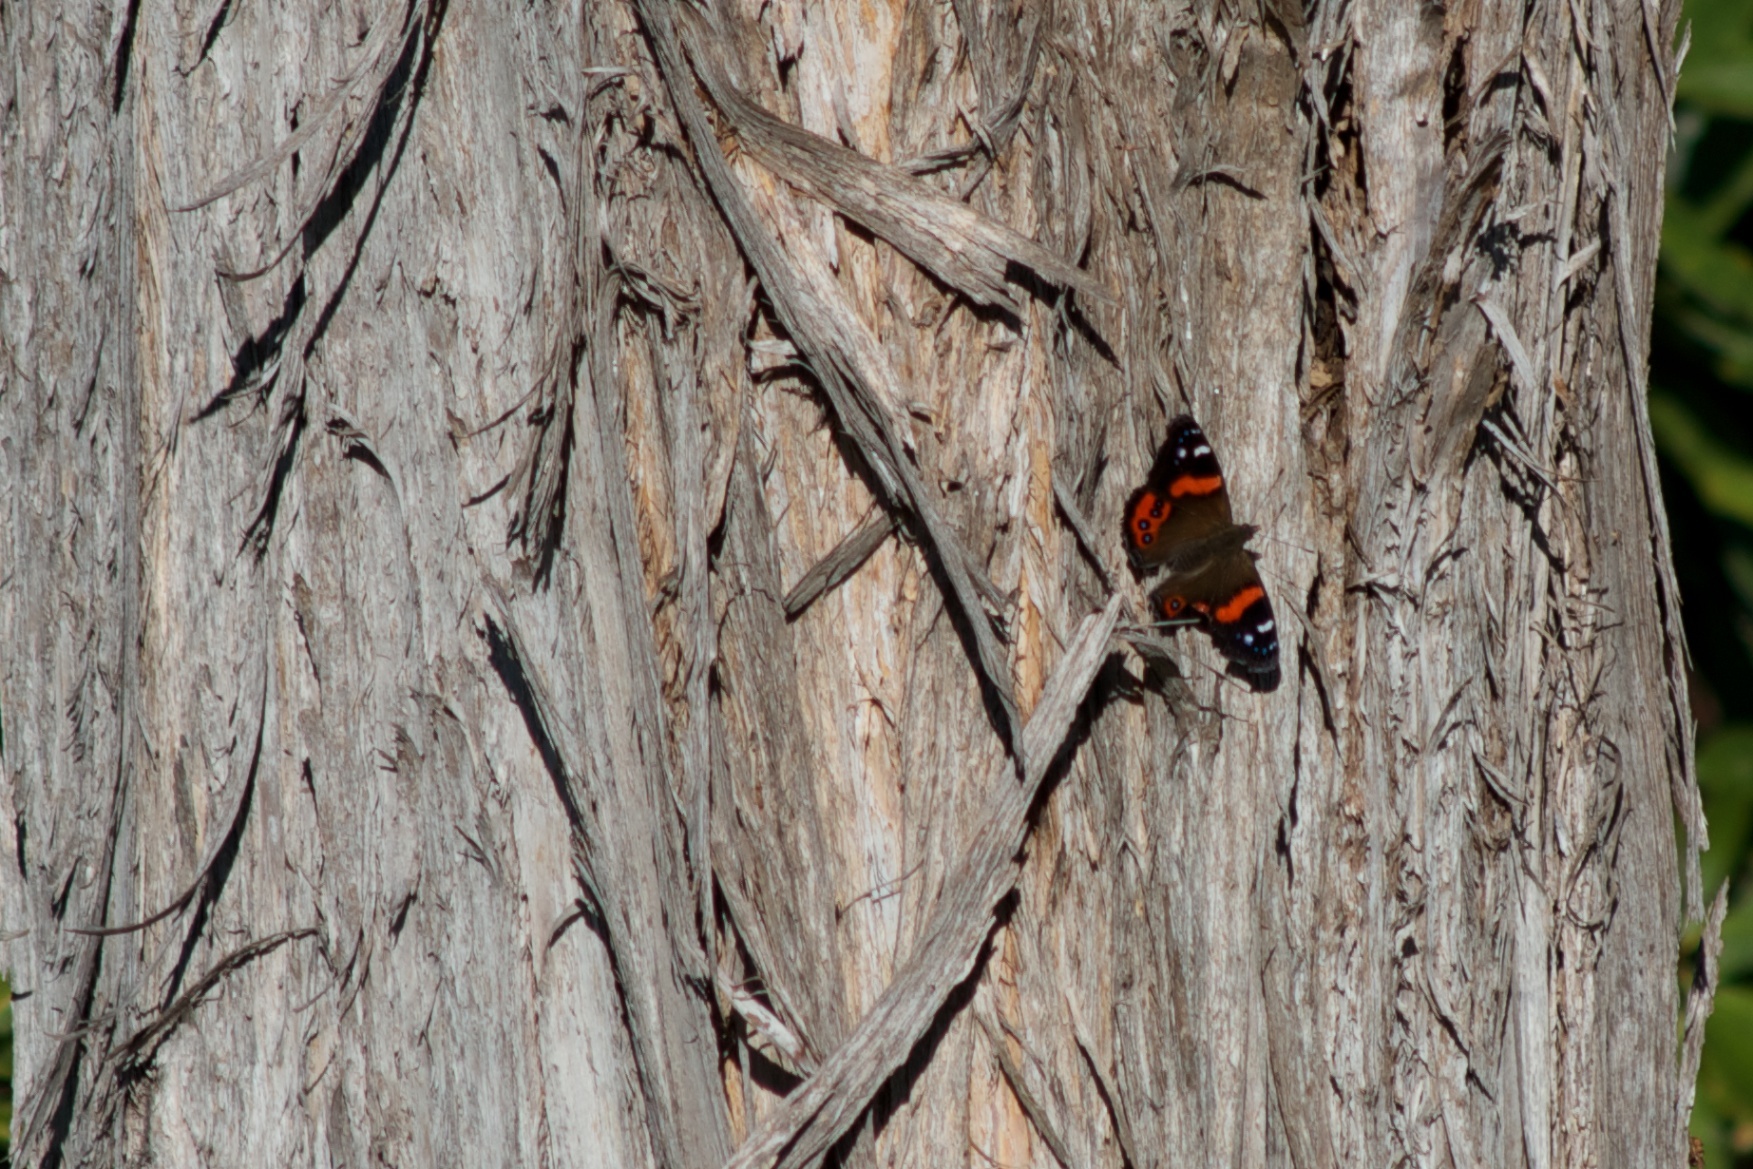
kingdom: Animalia
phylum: Arthropoda
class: Insecta
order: Lepidoptera
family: Nymphalidae
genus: Vanessa
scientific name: Vanessa gonerilla
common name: New zealand red admiral
